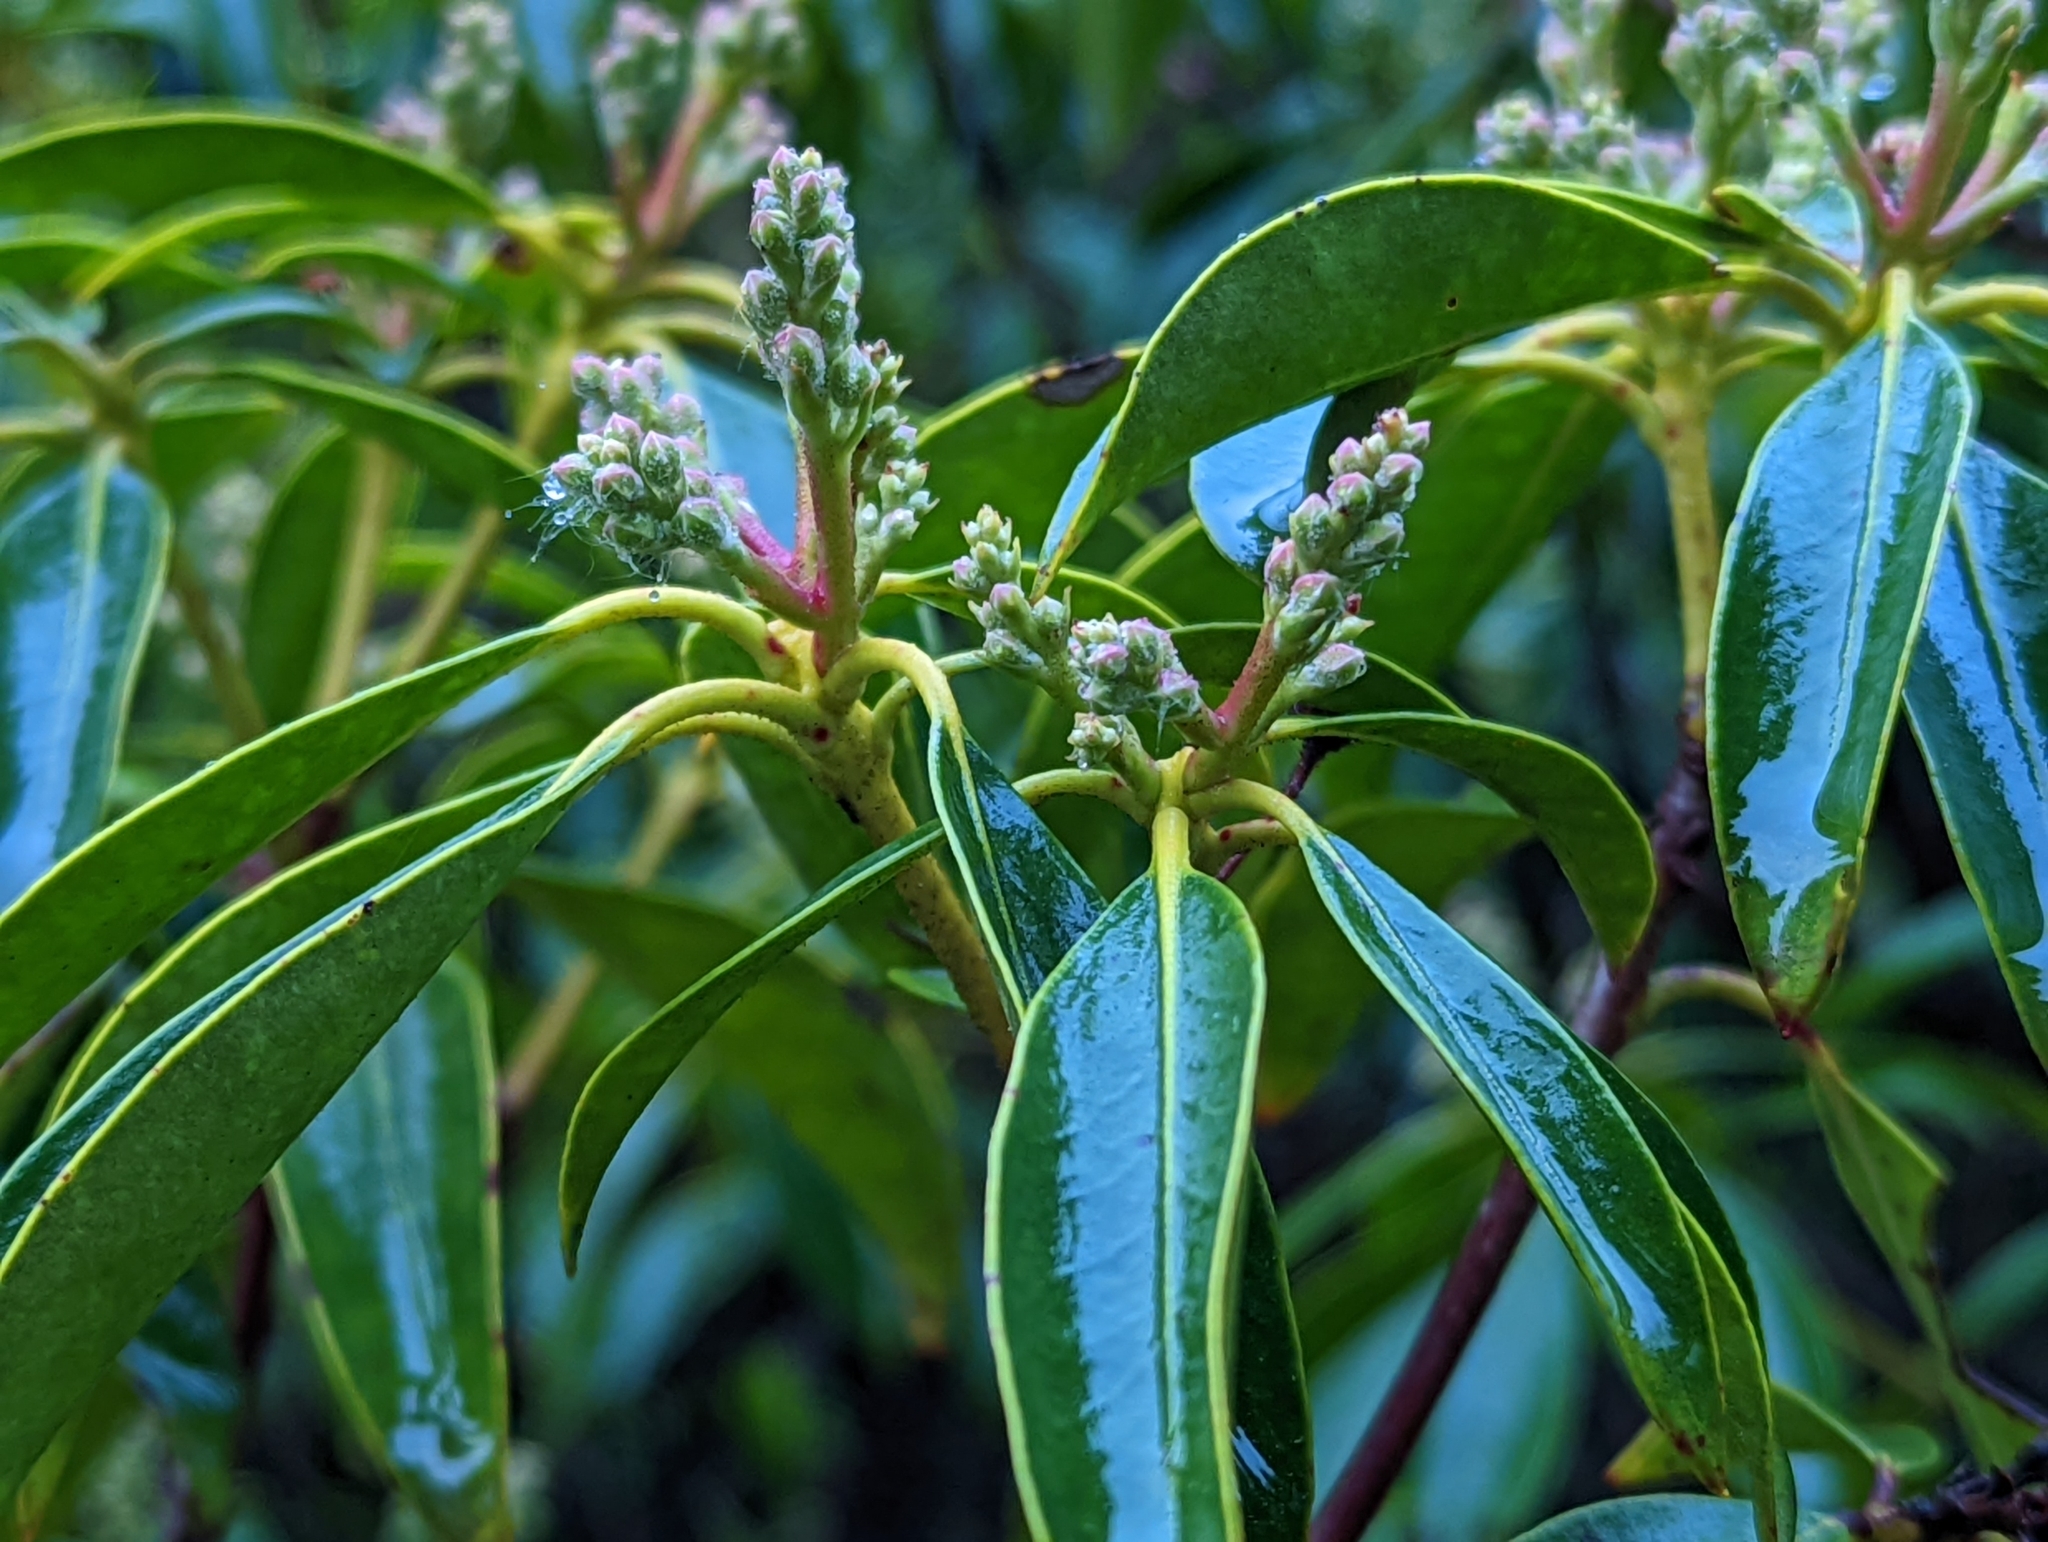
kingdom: Plantae
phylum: Tracheophyta
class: Magnoliopsida
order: Ericales
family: Ericaceae
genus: Kalmia
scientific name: Kalmia latifolia
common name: Mountain-laurel
